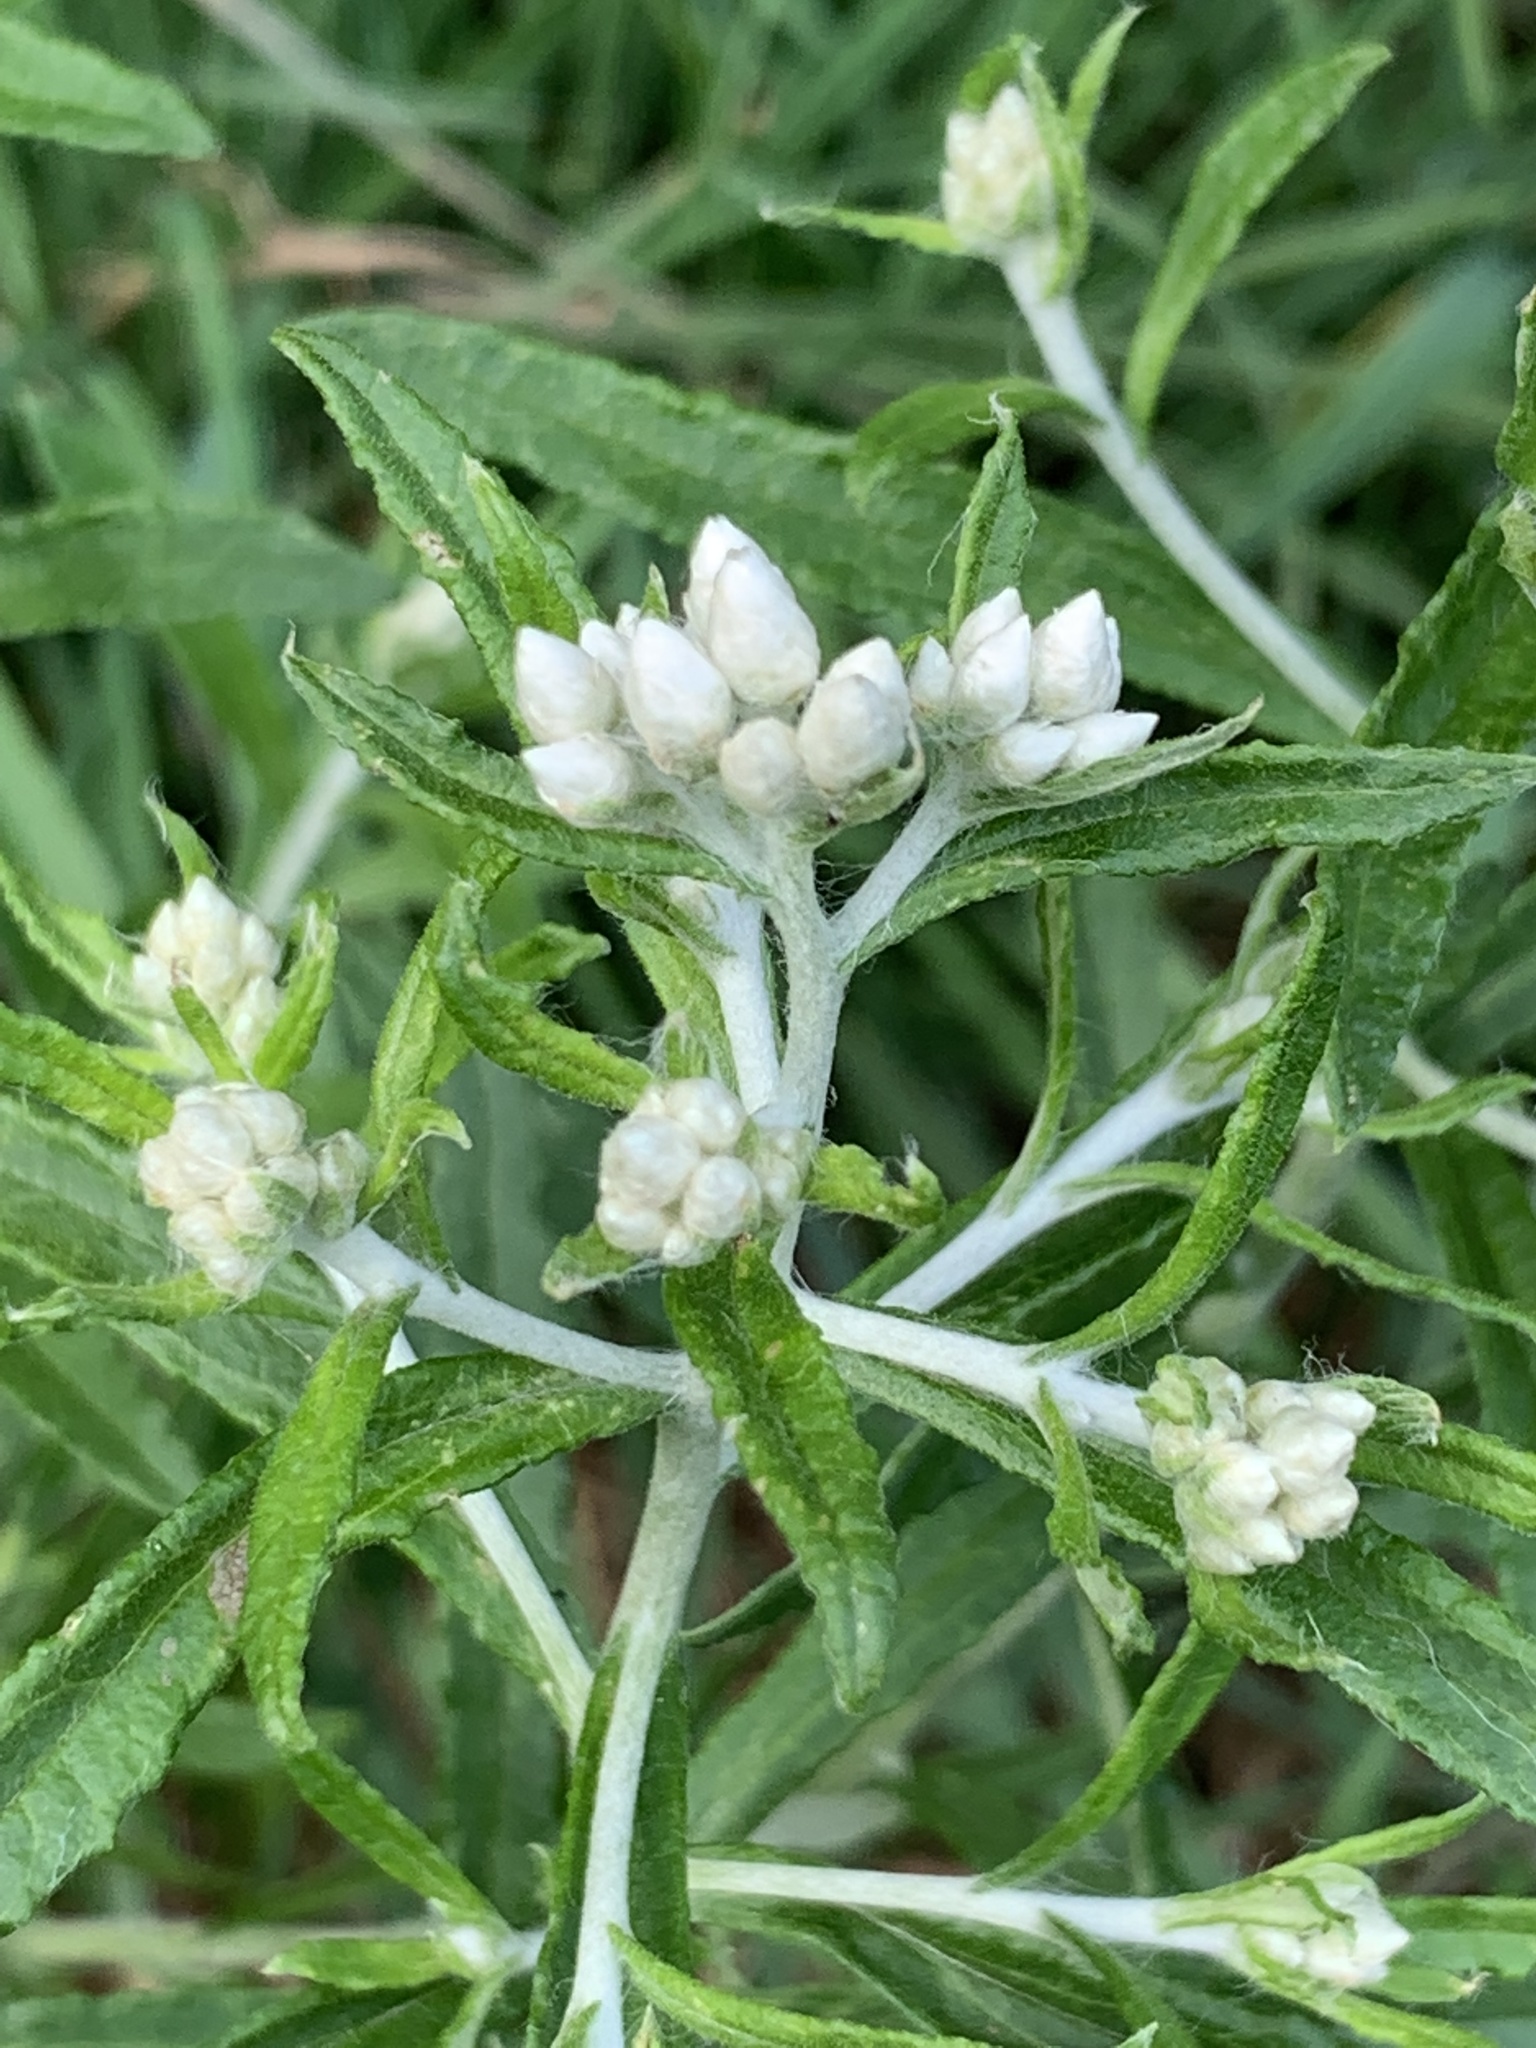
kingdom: Plantae
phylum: Tracheophyta
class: Magnoliopsida
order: Asterales
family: Asteraceae
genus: Pseudognaphalium
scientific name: Pseudognaphalium obtusifolium
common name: Eastern rabbit-tobacco
